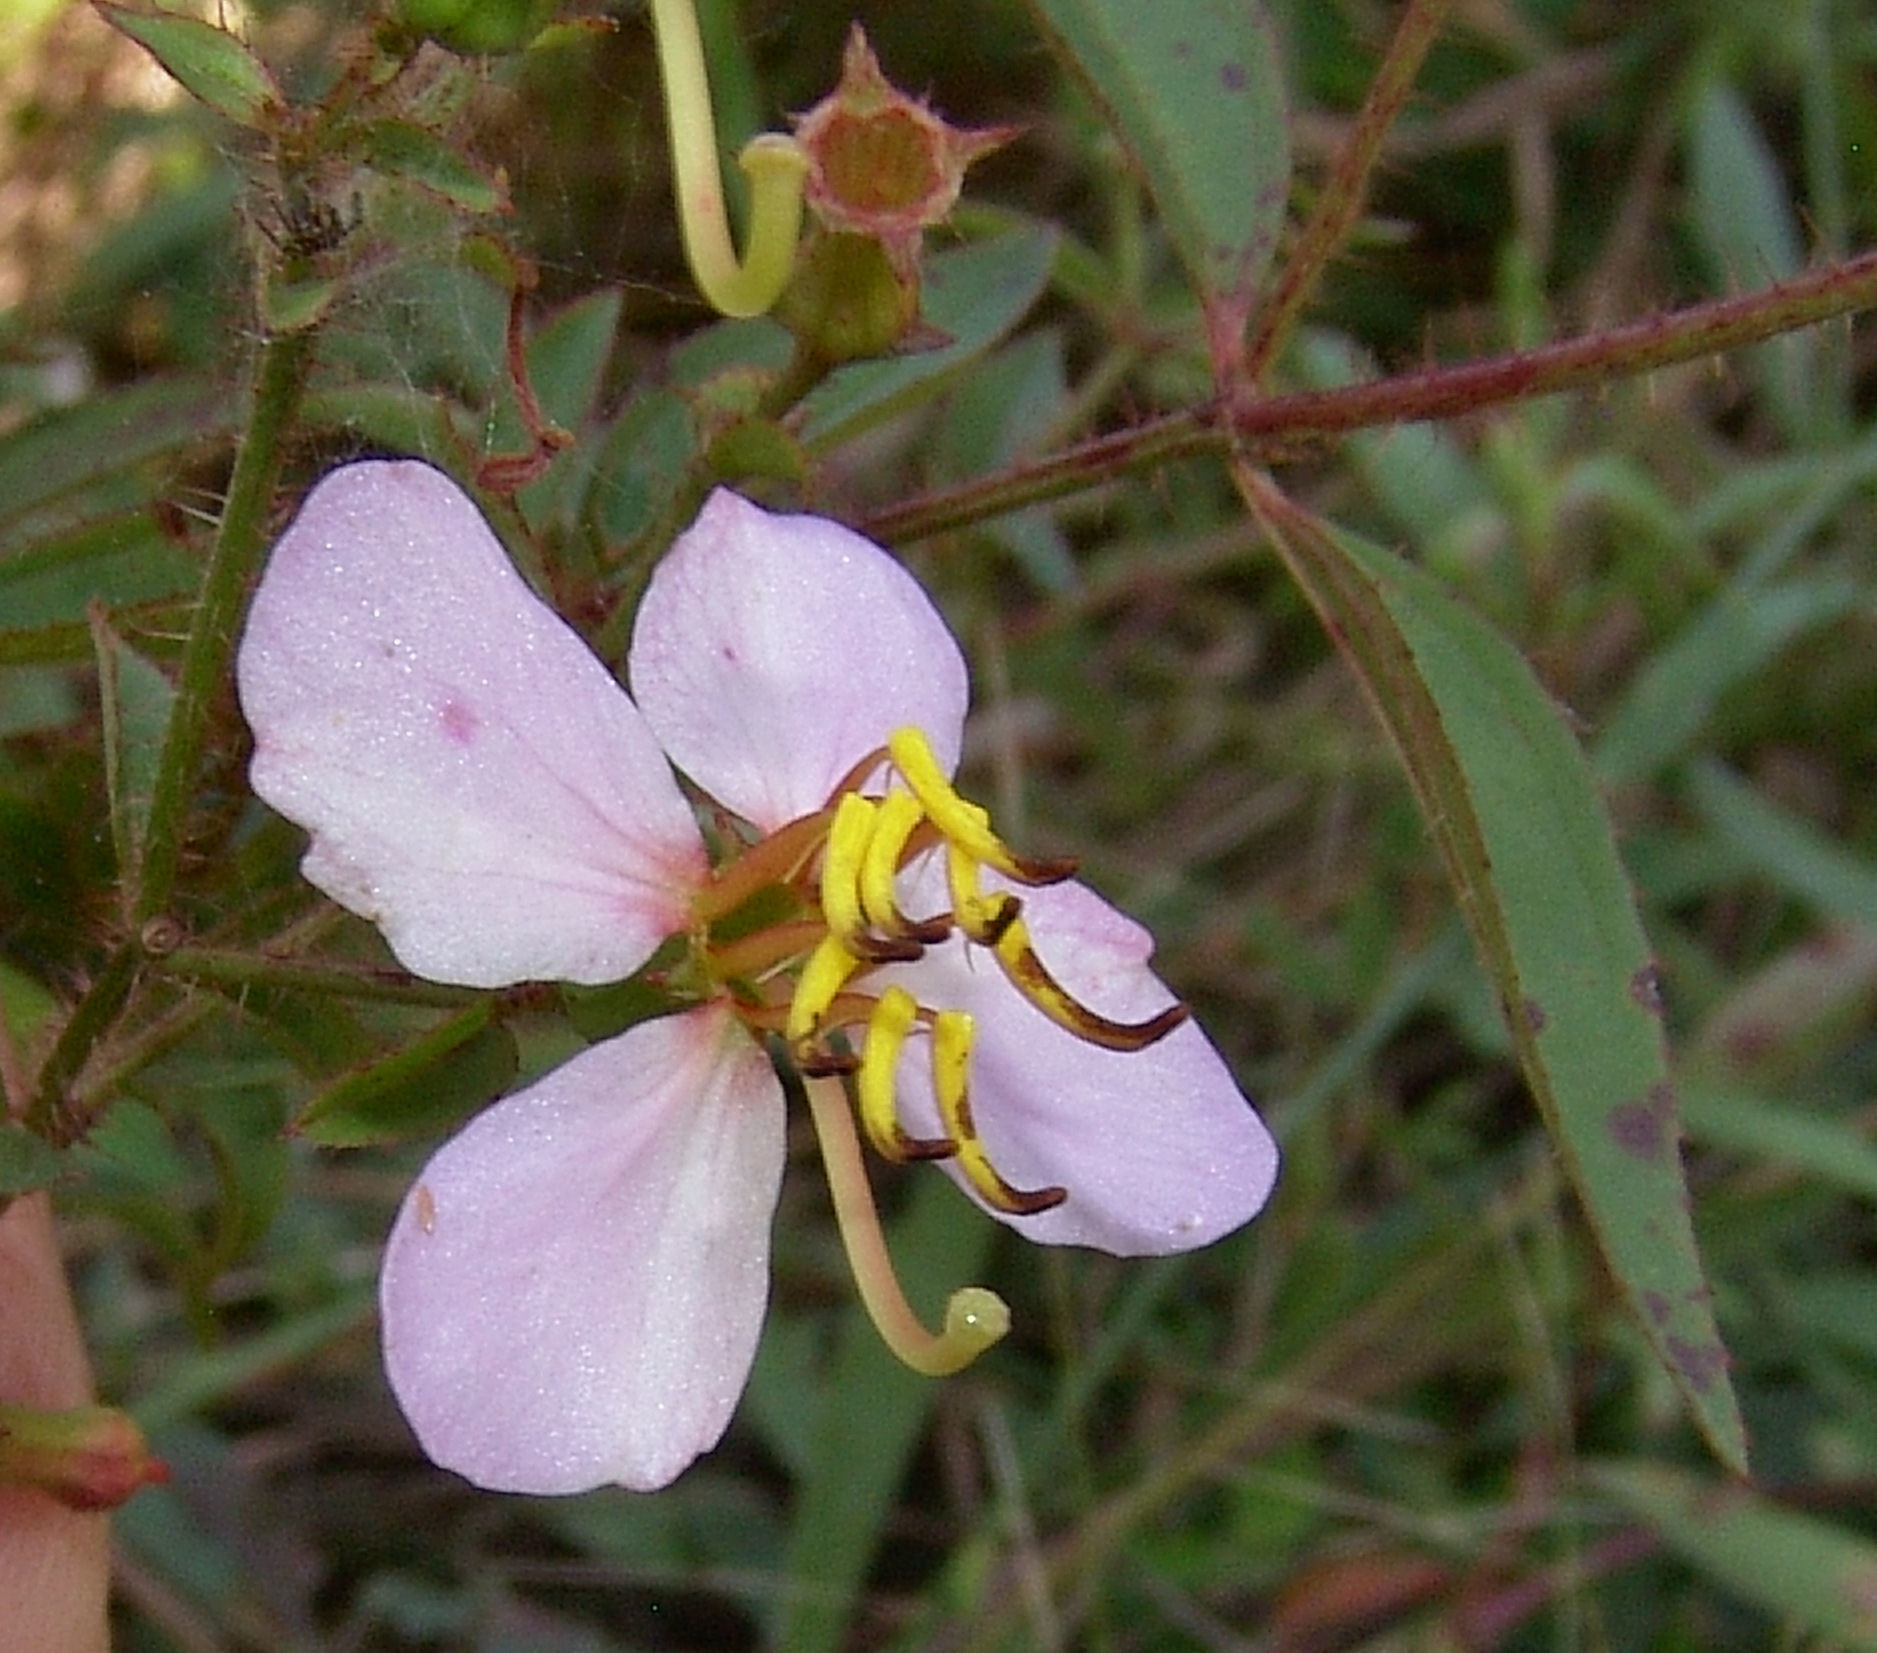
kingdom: Plantae
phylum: Tracheophyta
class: Magnoliopsida
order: Myrtales
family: Melastomataceae
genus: Rhexia
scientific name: Rhexia mariana
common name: Dull meadow-pitcher
